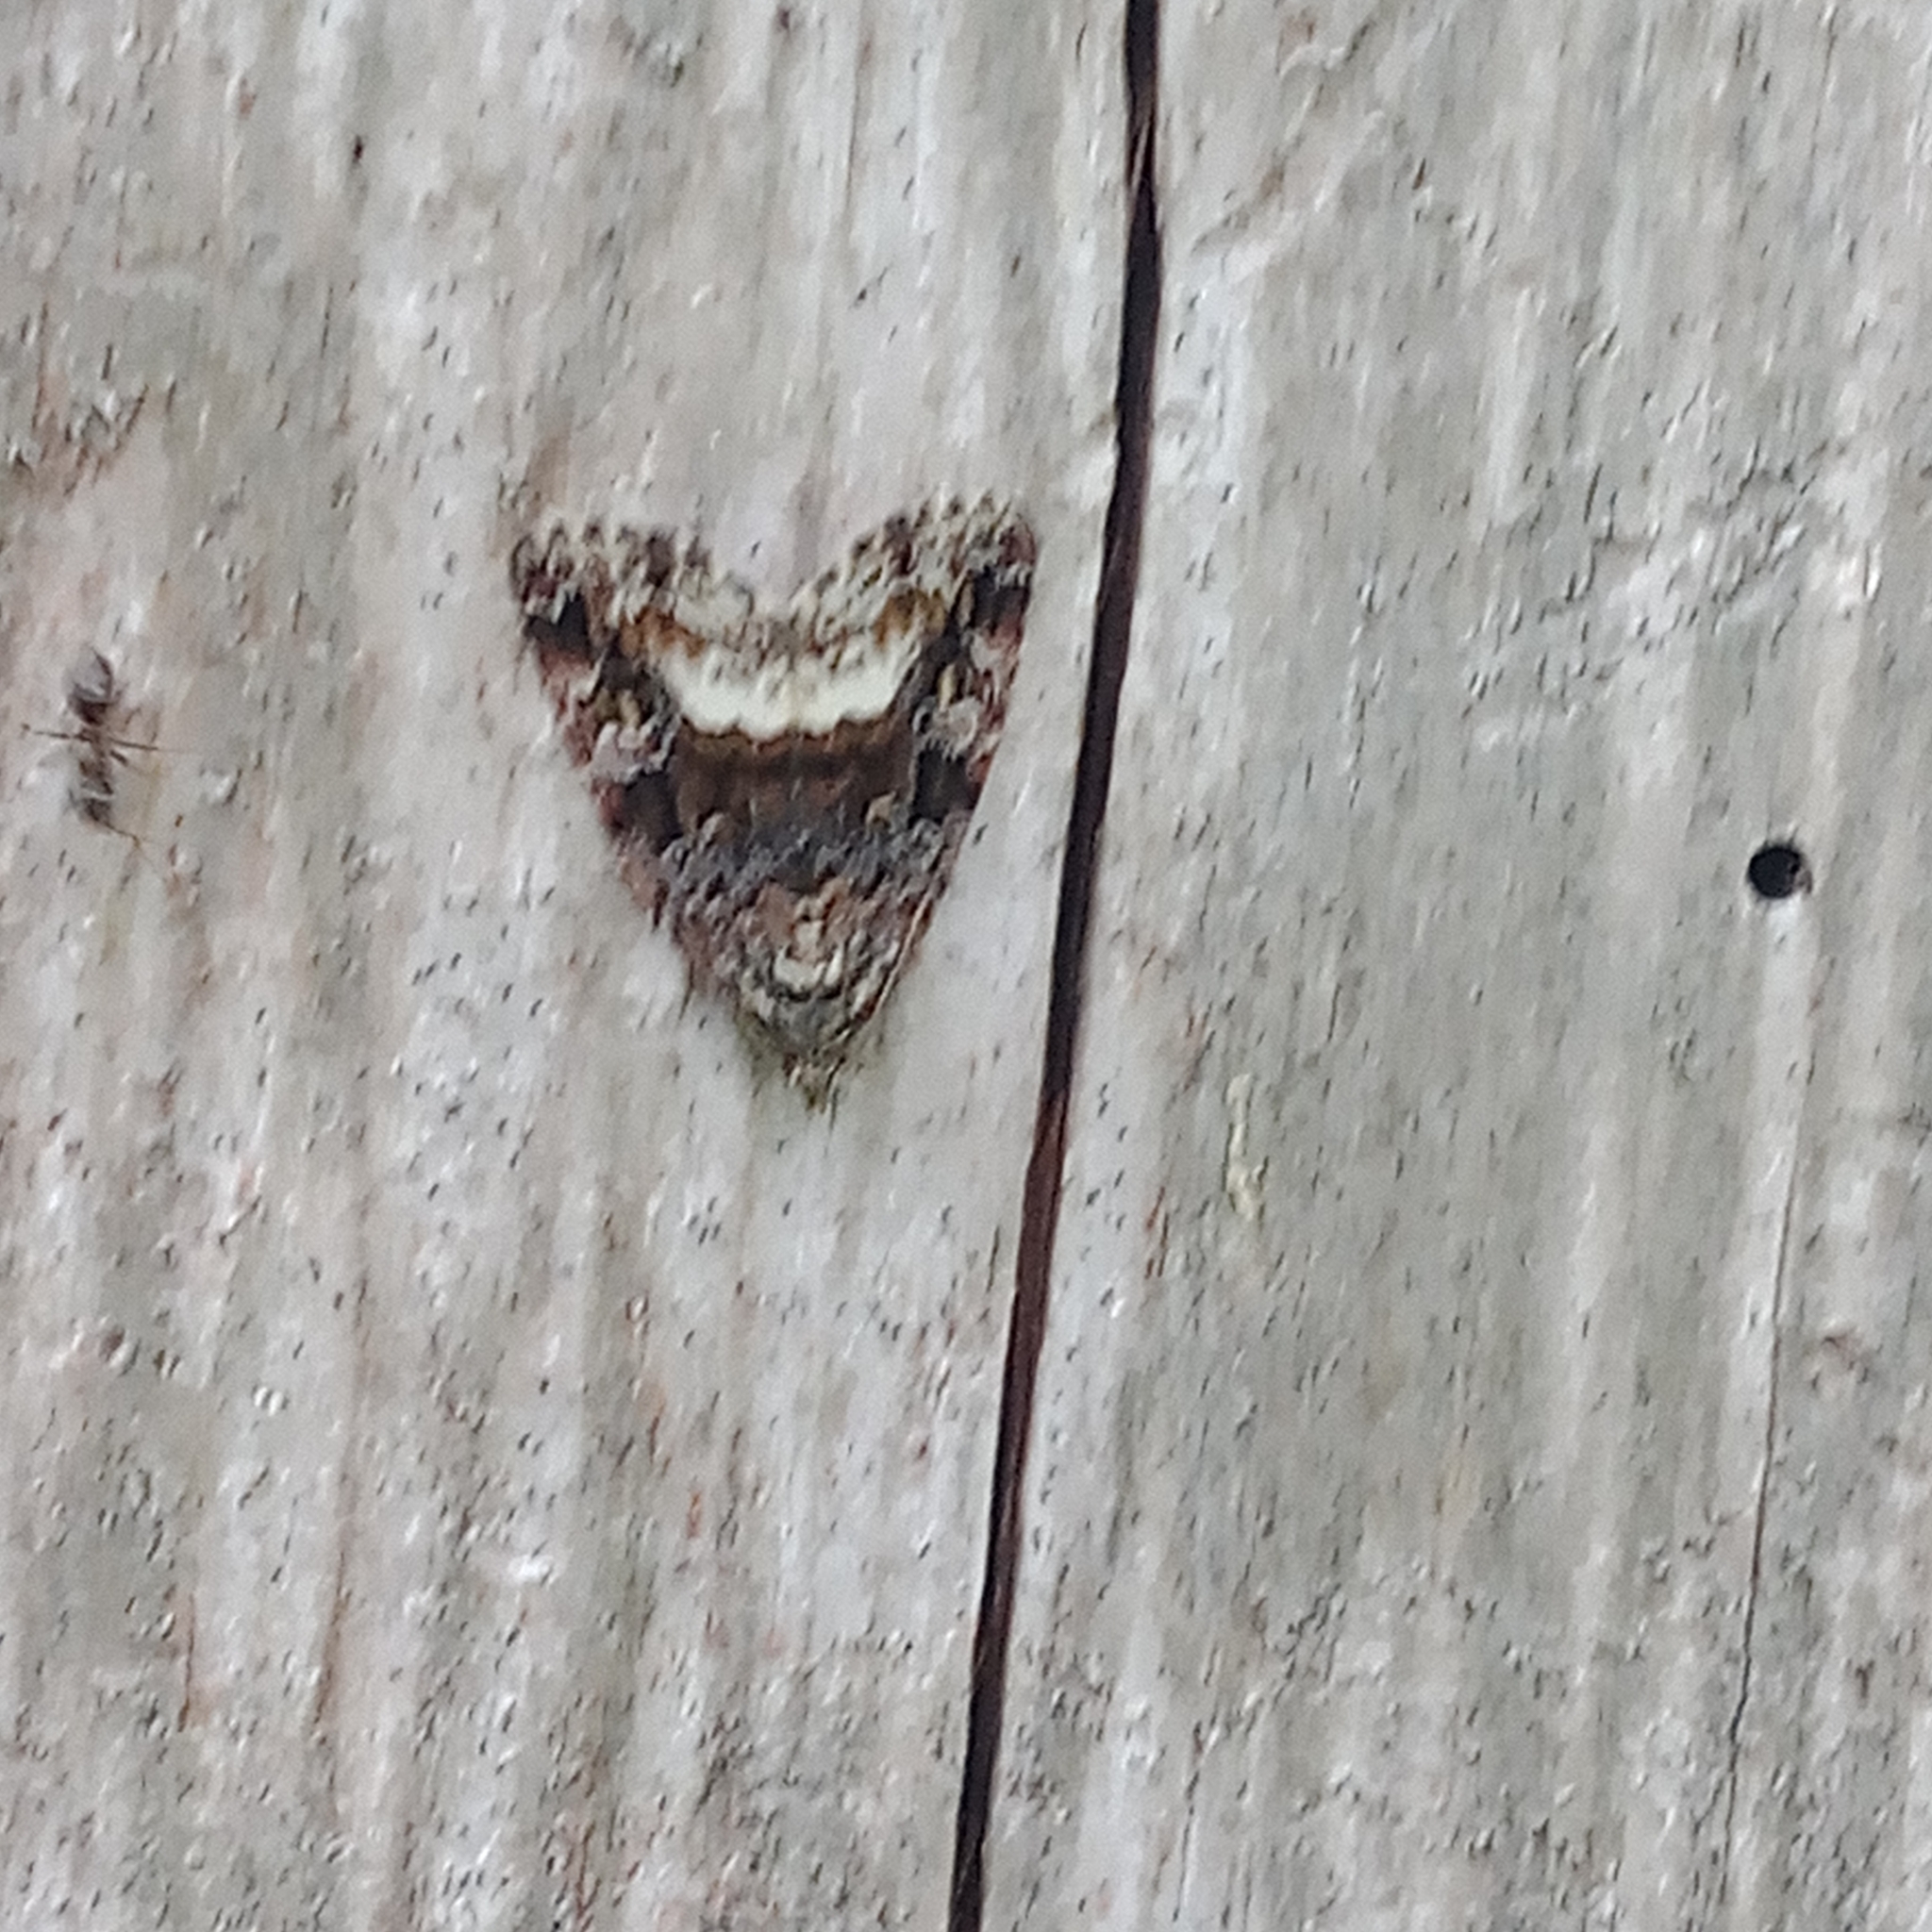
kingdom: Animalia
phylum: Arthropoda
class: Insecta
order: Lepidoptera
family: Noctuidae
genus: Deltote
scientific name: Deltote pygarga
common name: Marbled white spot
